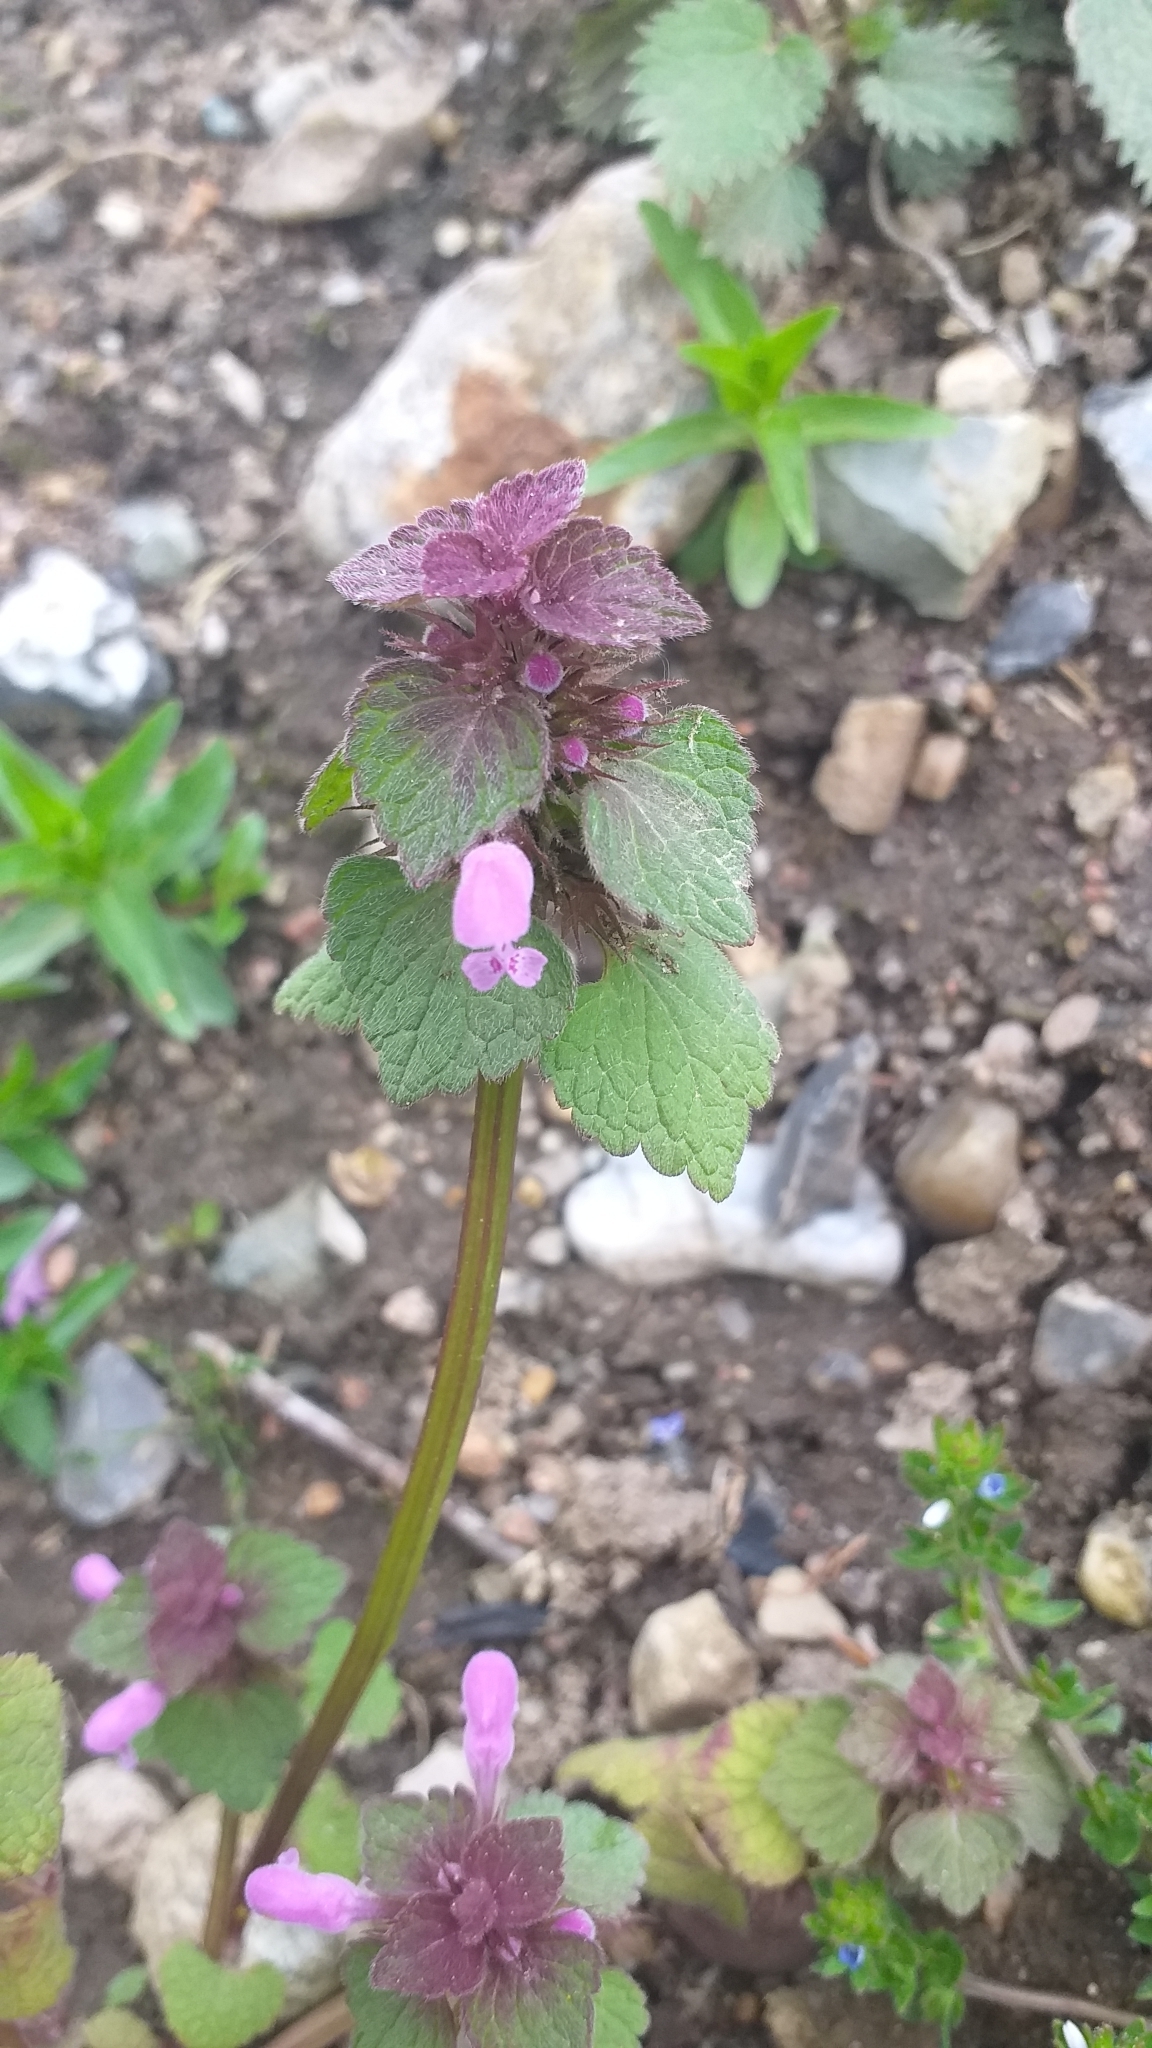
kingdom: Plantae
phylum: Tracheophyta
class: Magnoliopsida
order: Lamiales
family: Lamiaceae
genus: Lamium
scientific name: Lamium purpureum
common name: Red dead-nettle
